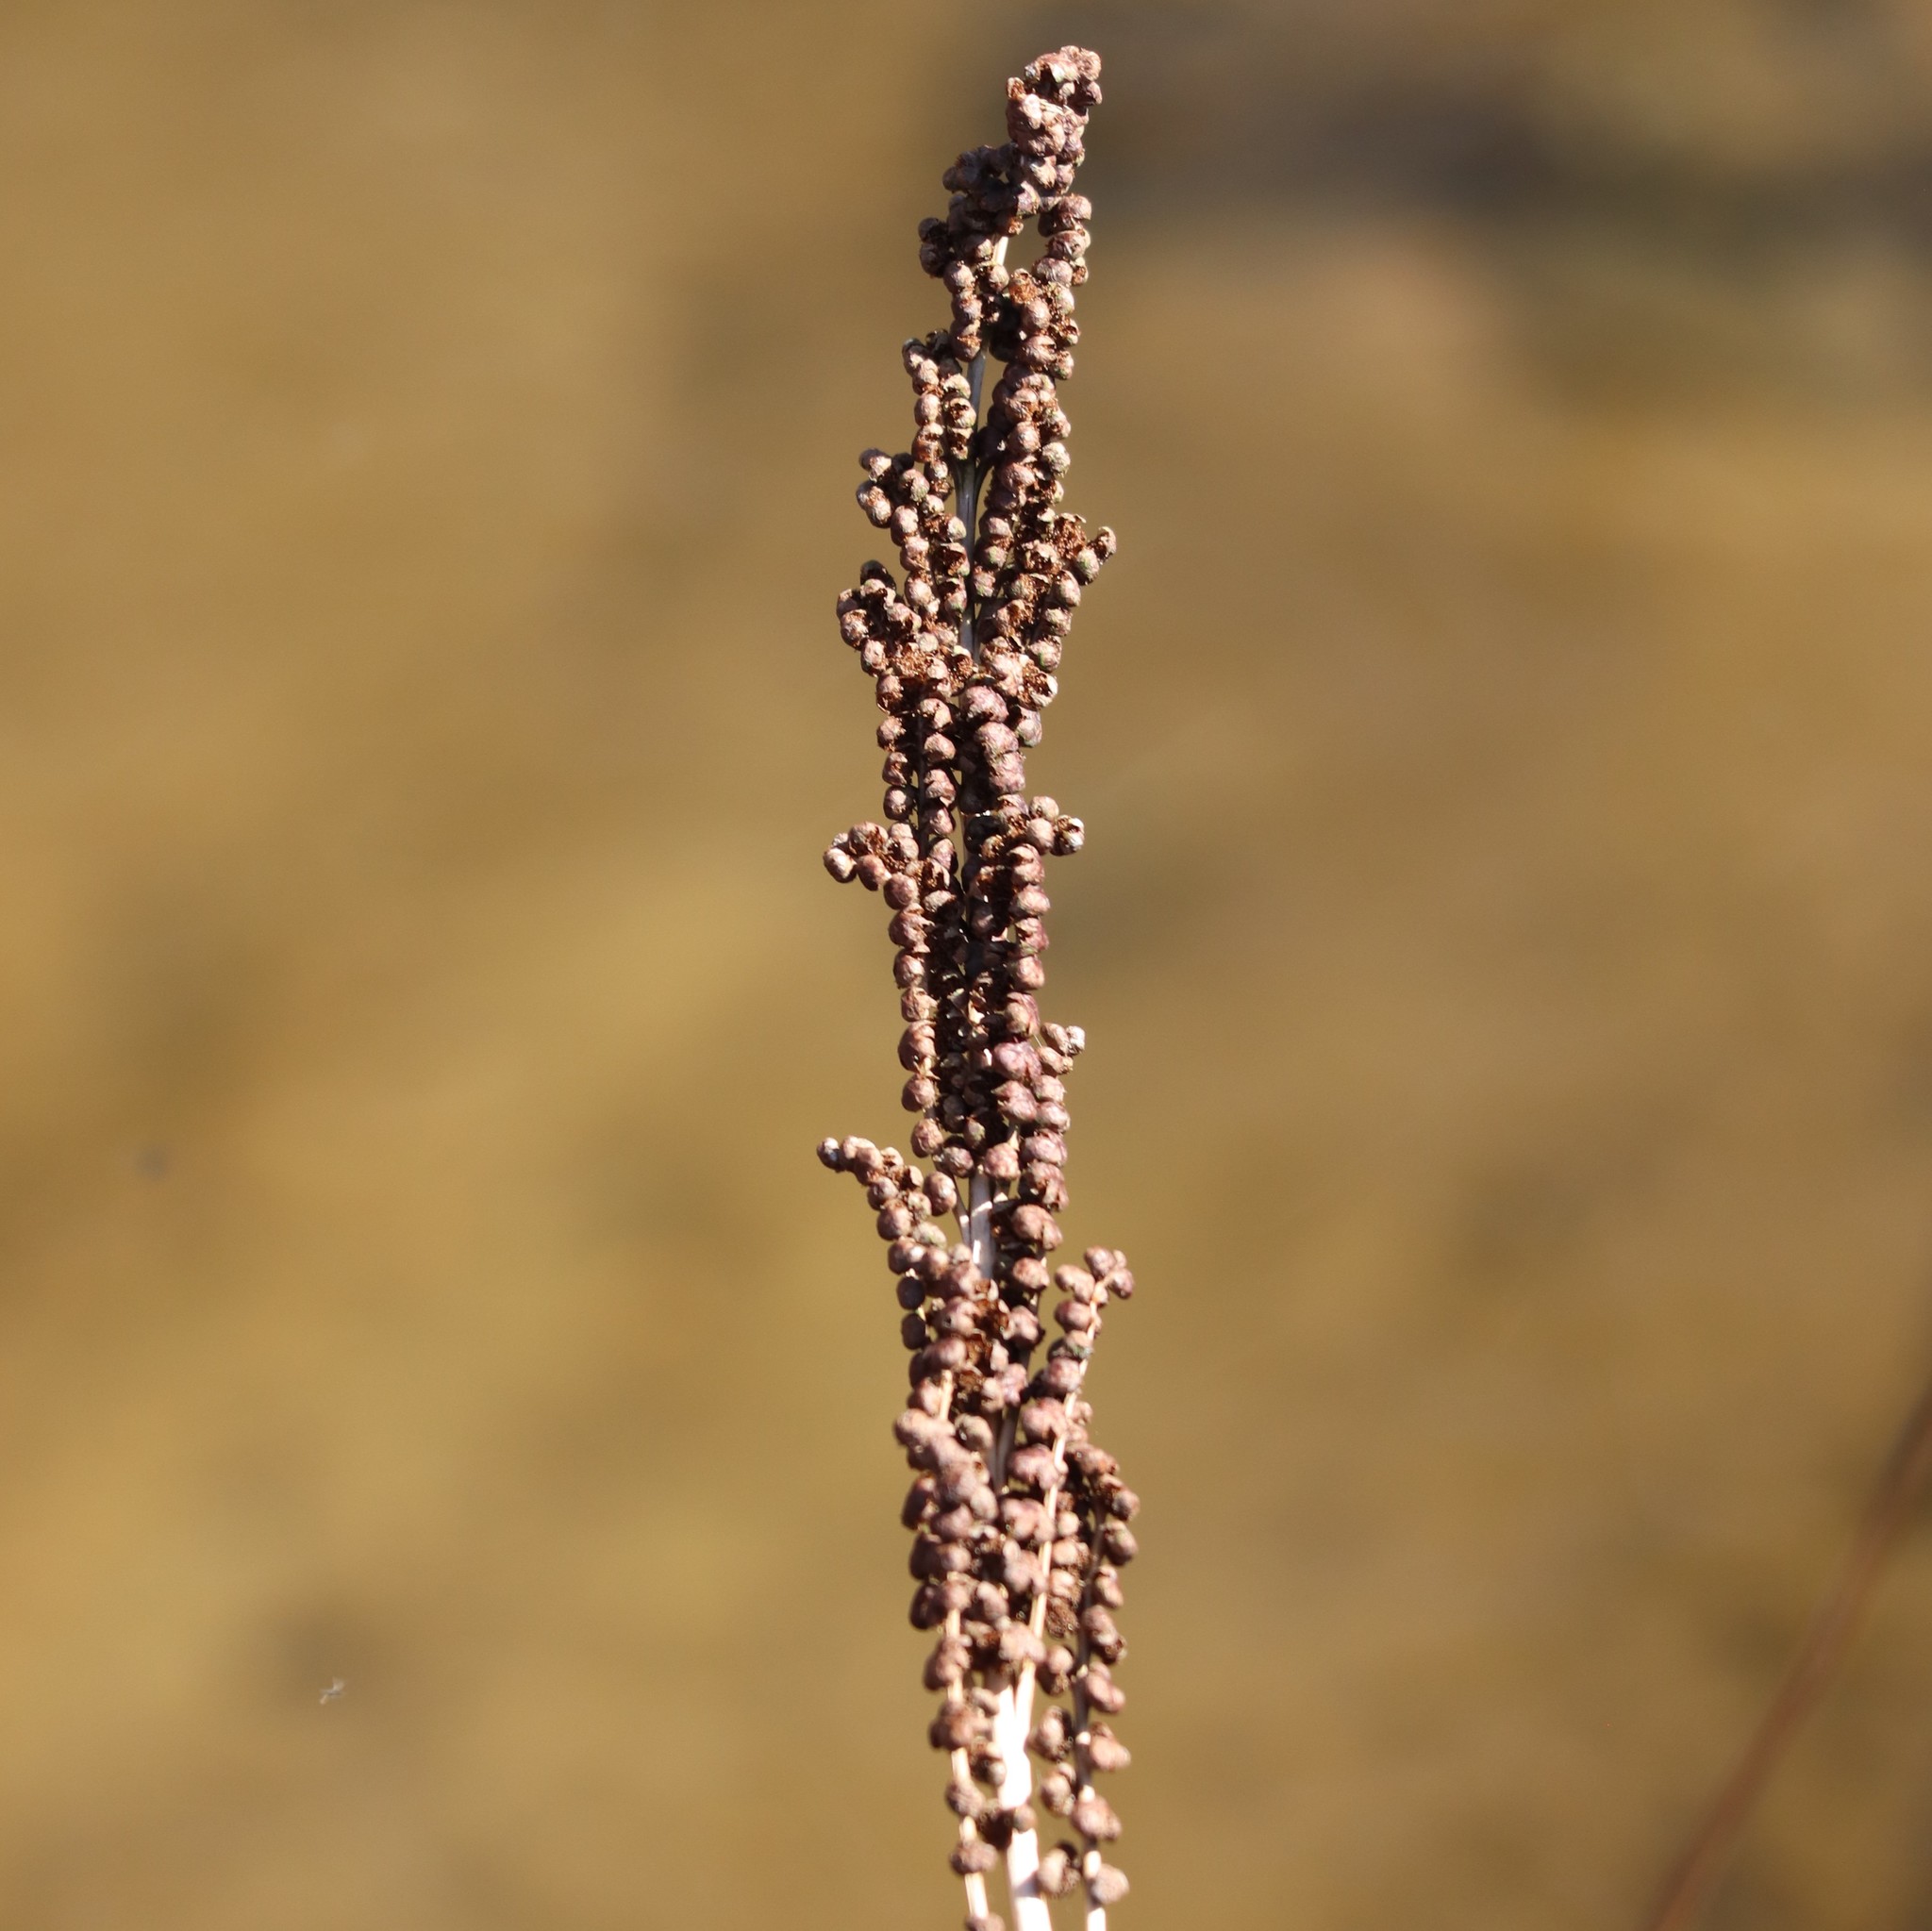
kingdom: Plantae
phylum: Tracheophyta
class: Polypodiopsida
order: Polypodiales
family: Onocleaceae
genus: Onoclea
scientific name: Onoclea sensibilis
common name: Sensitive fern
